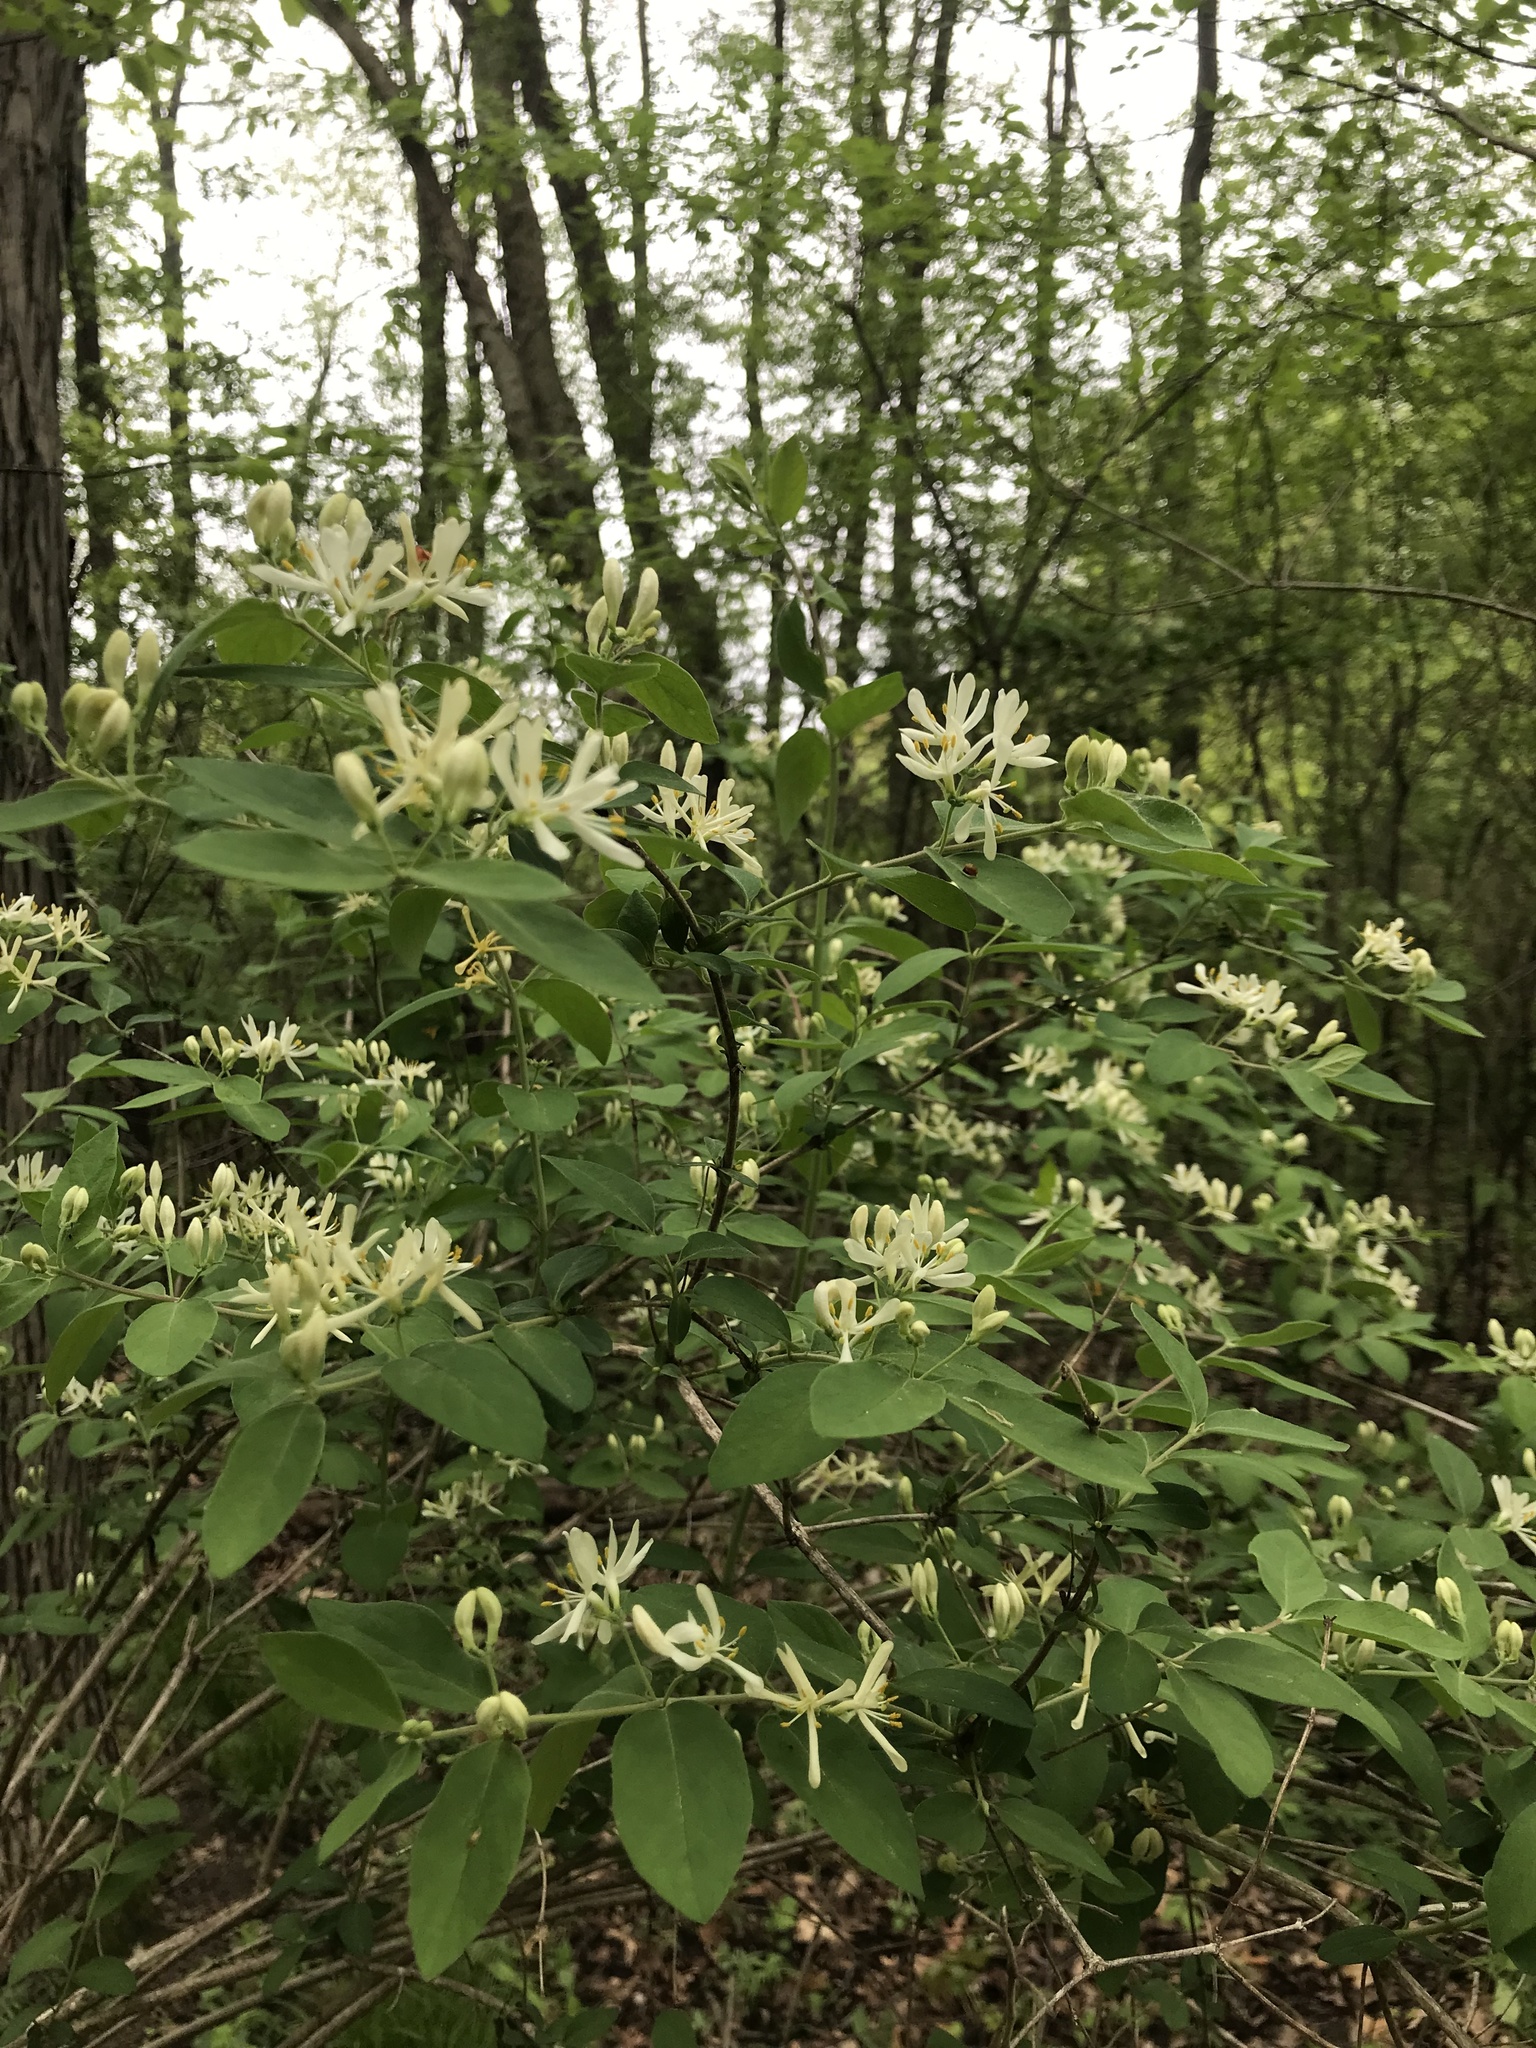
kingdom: Plantae
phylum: Tracheophyta
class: Magnoliopsida
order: Dipsacales
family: Caprifoliaceae
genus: Lonicera
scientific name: Lonicera
